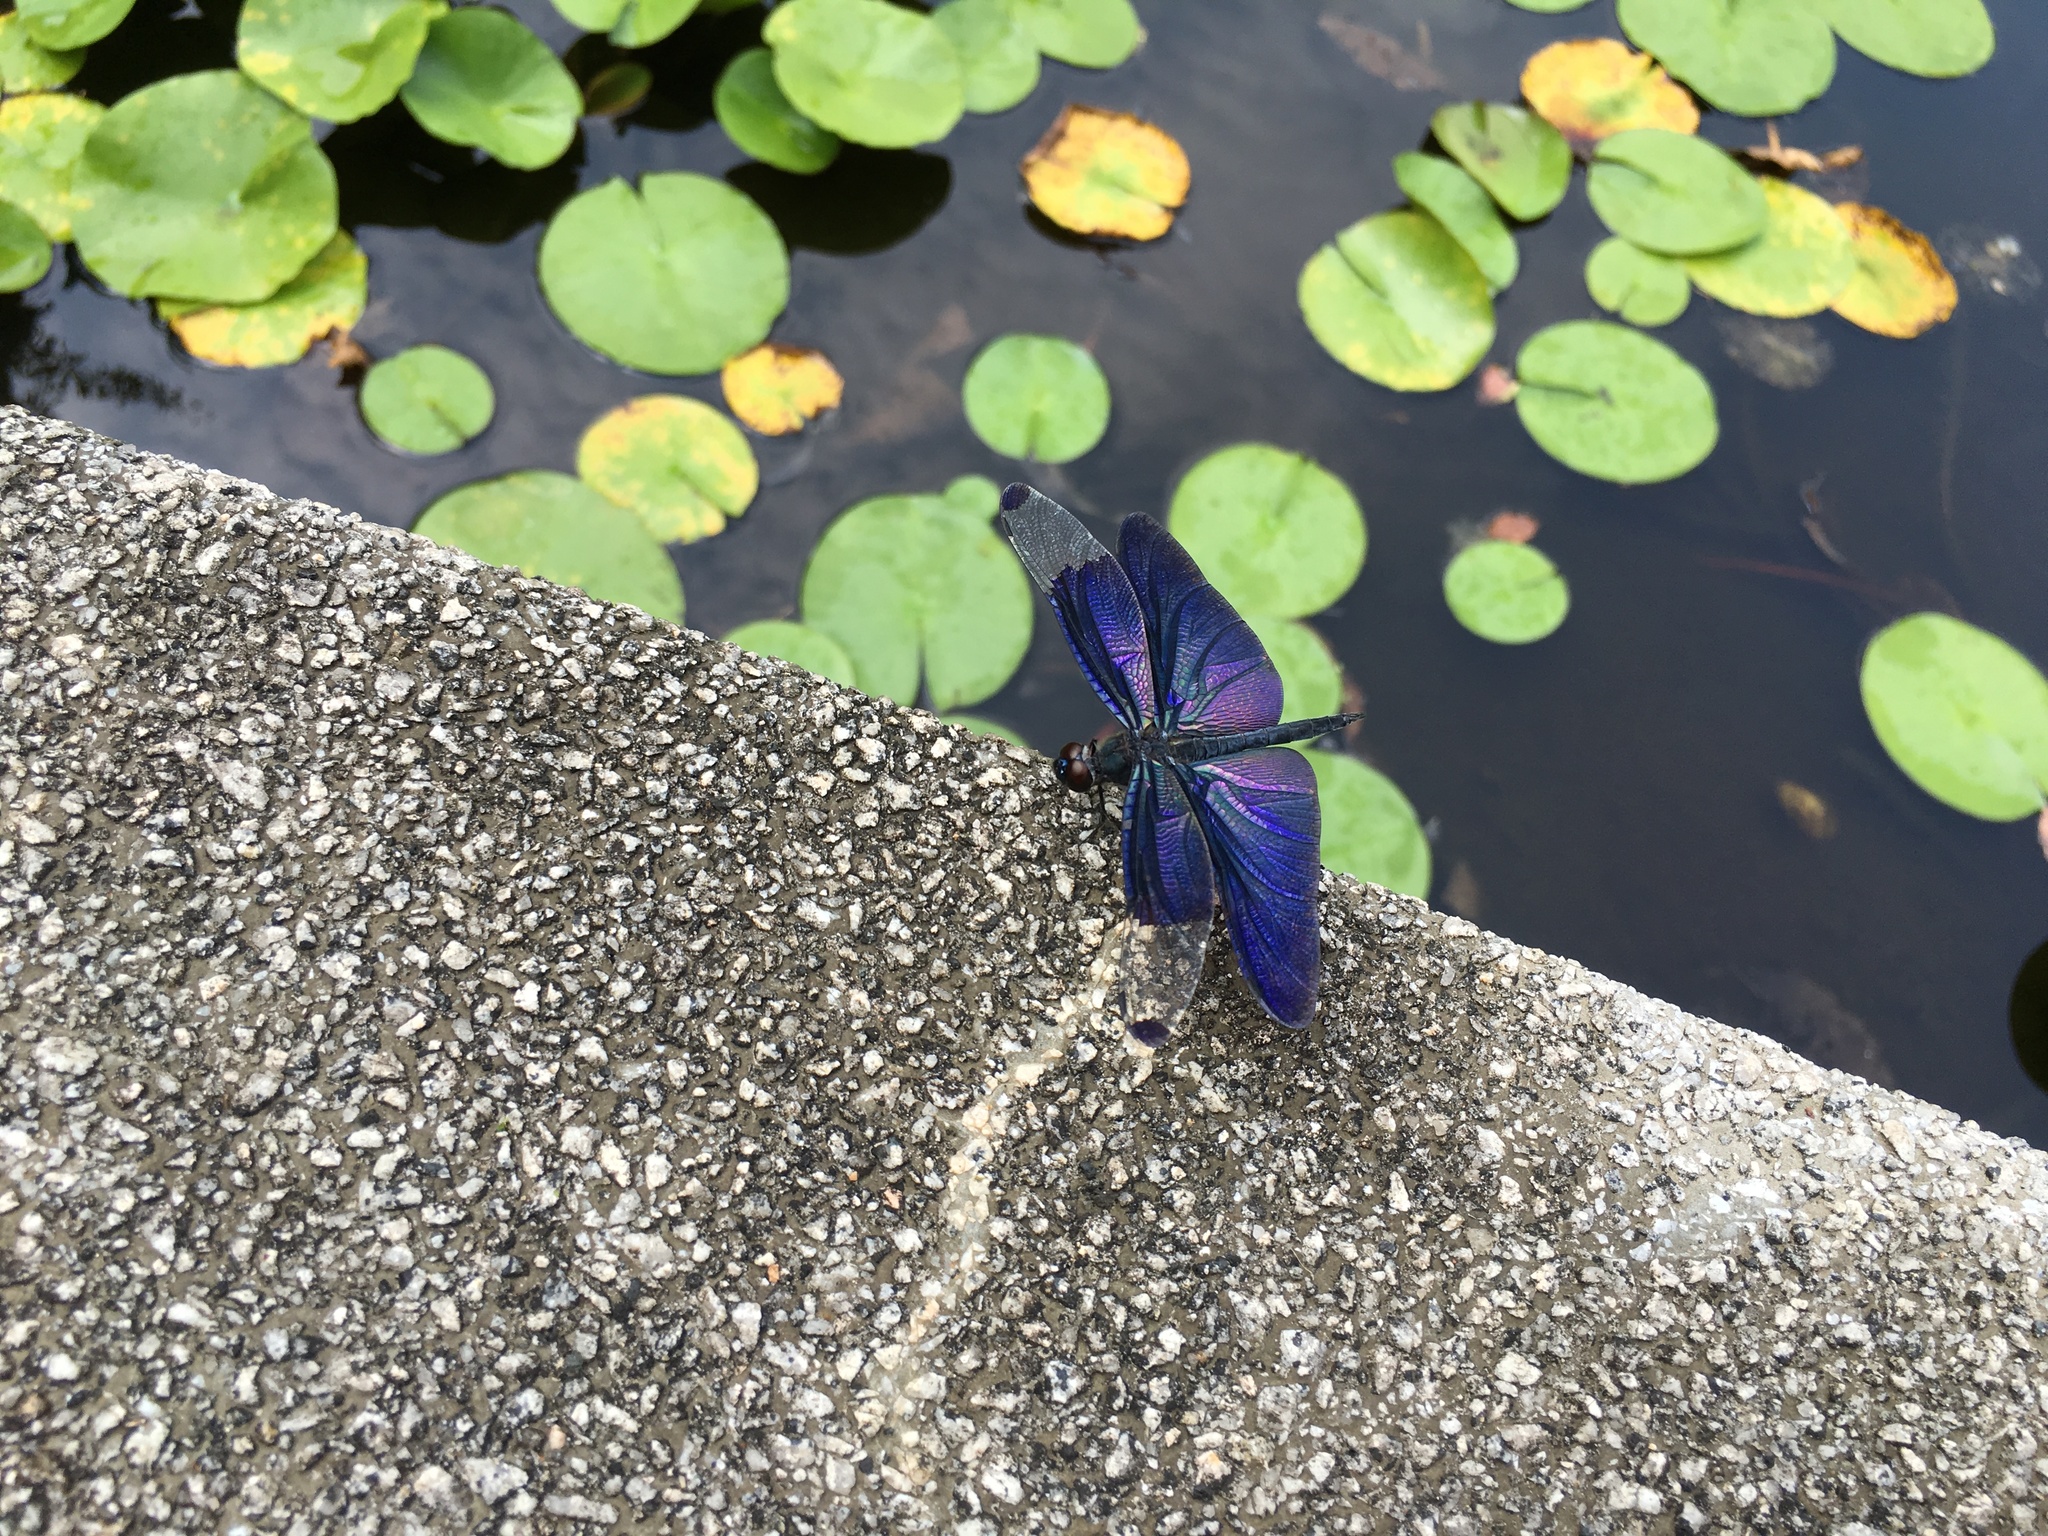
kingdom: Animalia
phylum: Arthropoda
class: Insecta
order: Odonata
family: Libellulidae
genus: Rhyothemis
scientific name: Rhyothemis fuliginosa
